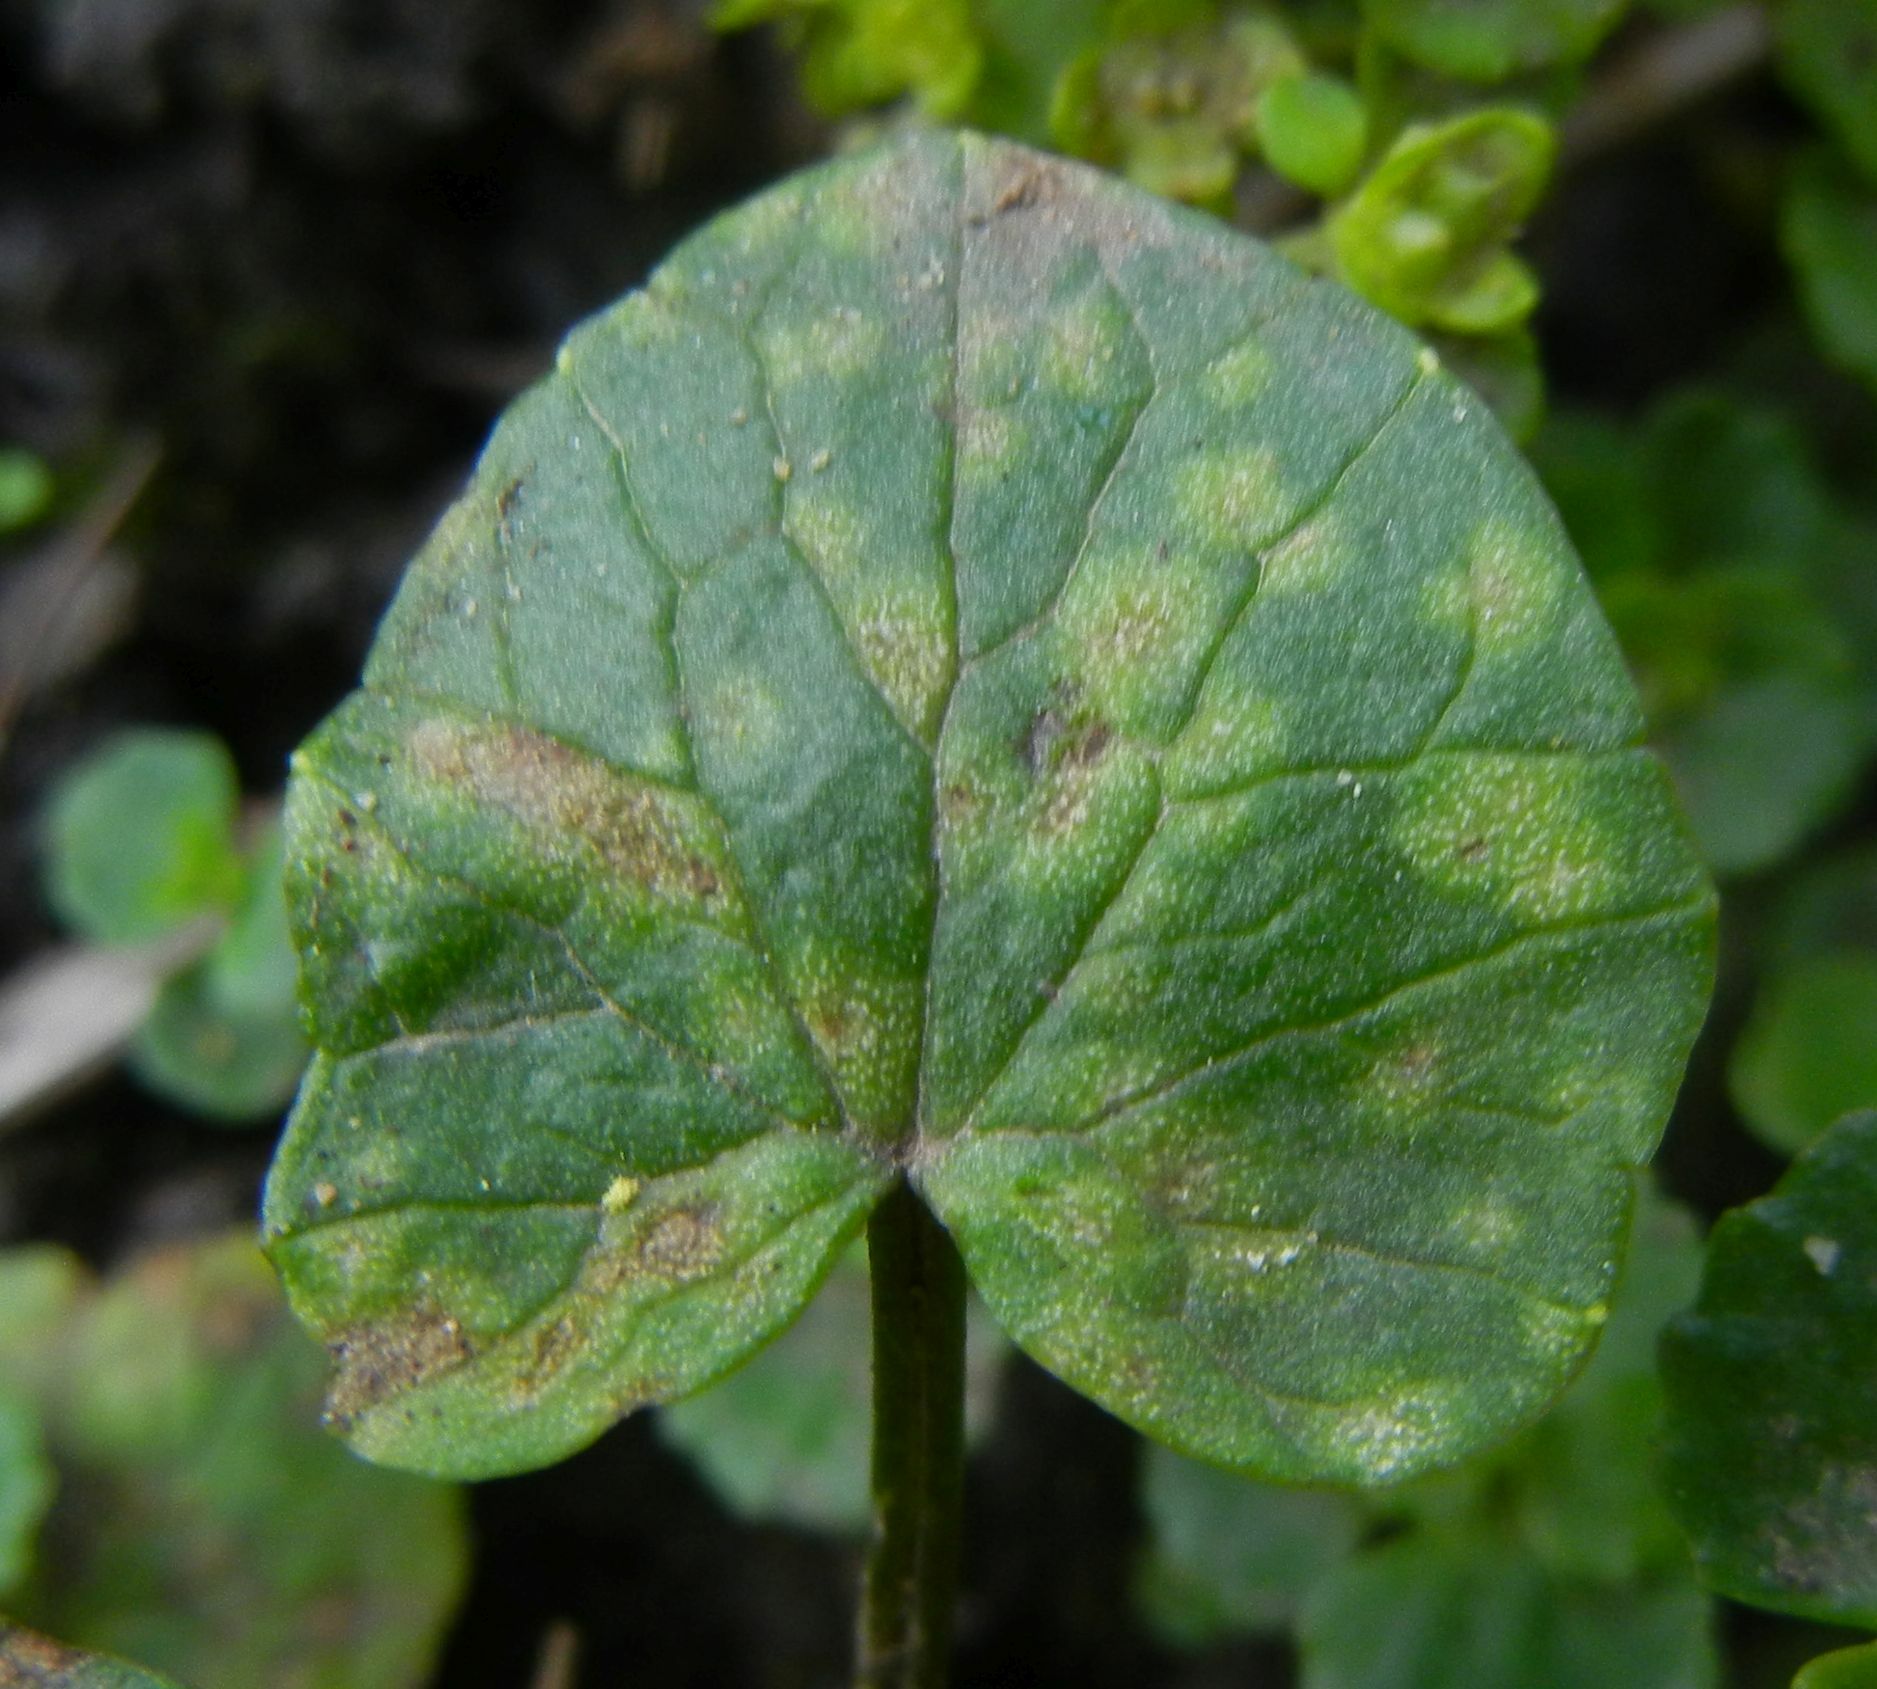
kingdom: Fungi
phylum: Basidiomycota
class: Exobasidiomycetes
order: Entylomatales
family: Entylomataceae
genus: Entyloma
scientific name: Entyloma ficariae
